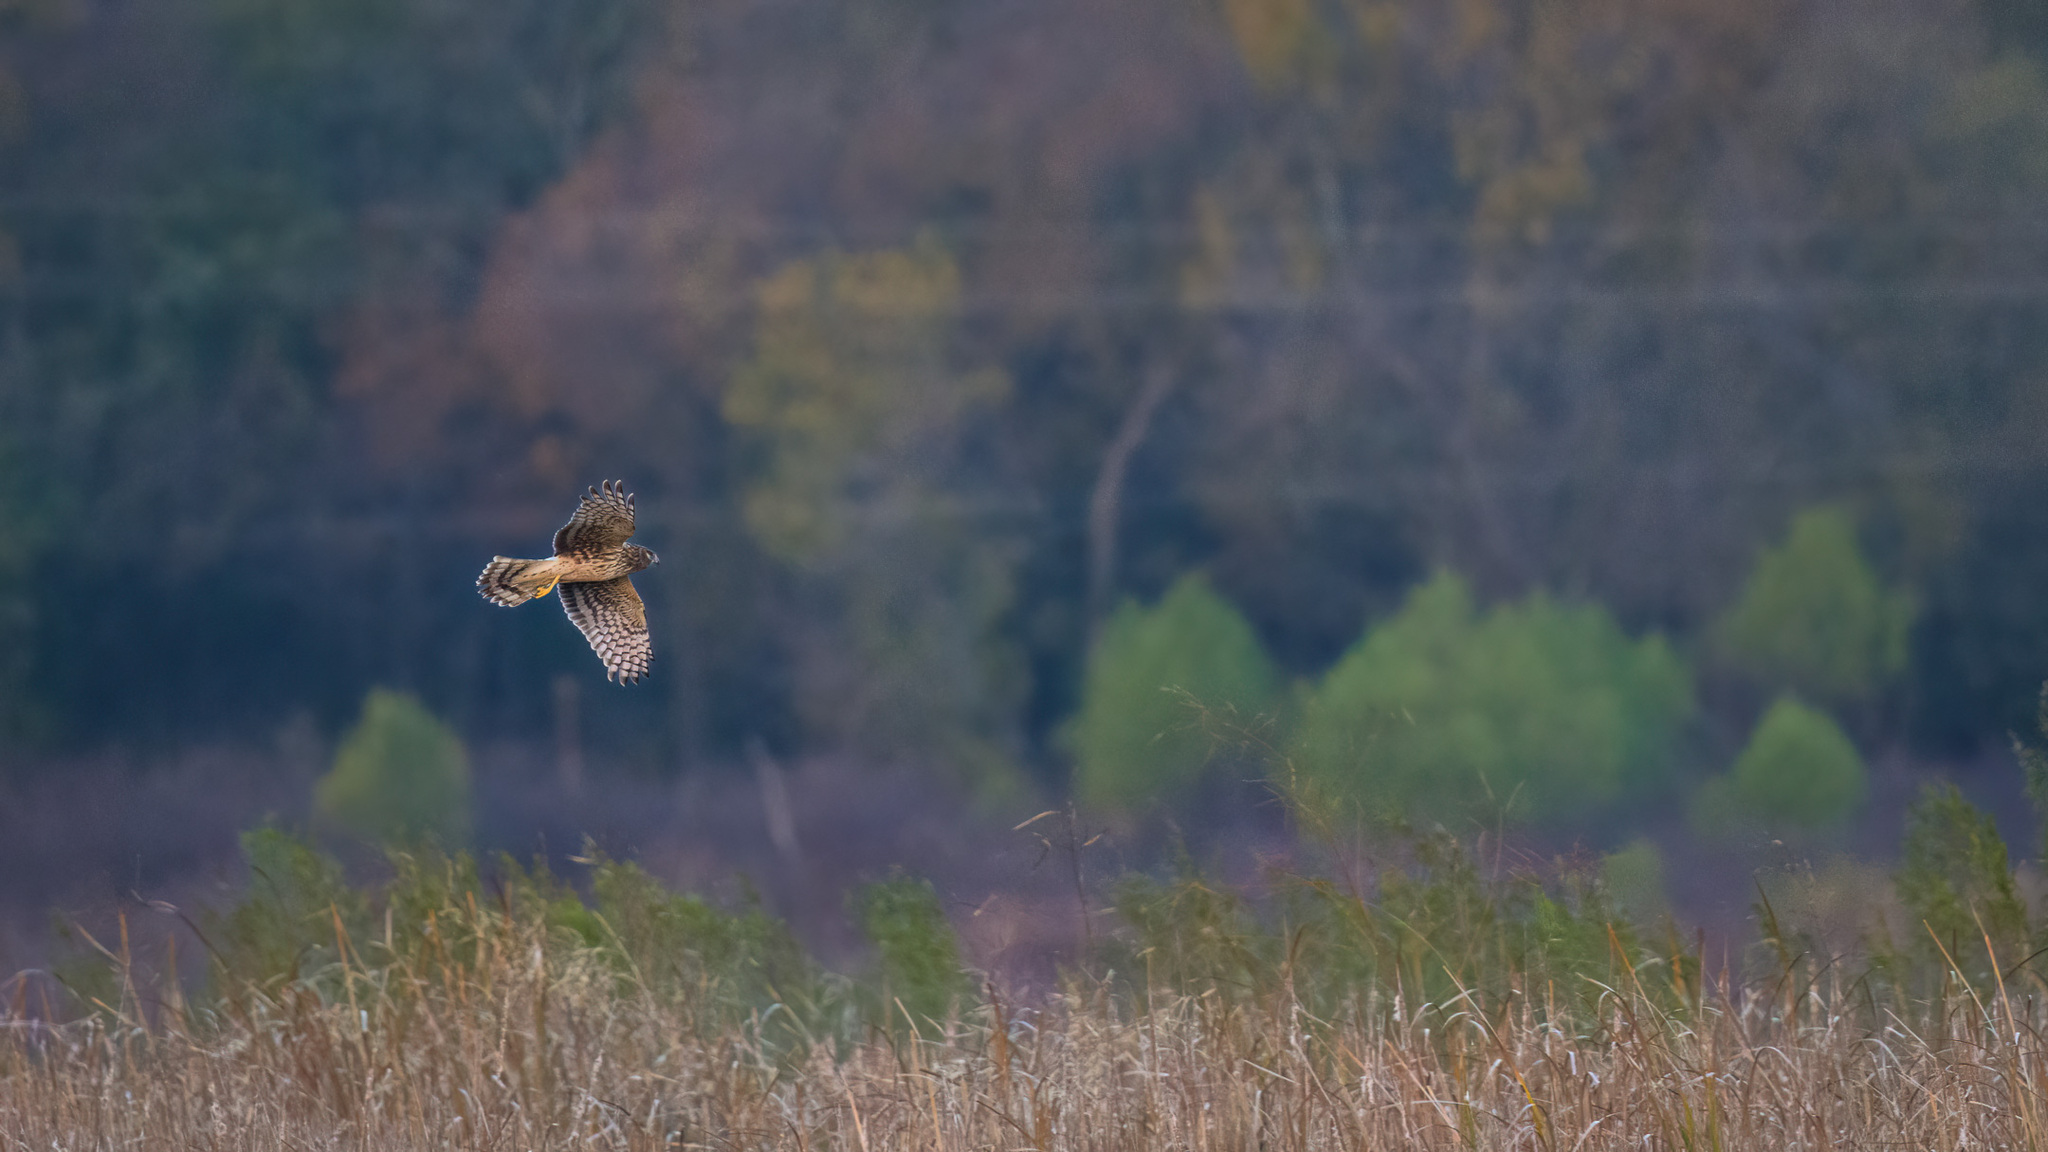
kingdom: Animalia
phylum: Chordata
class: Aves
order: Accipitriformes
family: Accipitridae
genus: Circus
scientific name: Circus cyaneus
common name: Hen harrier
